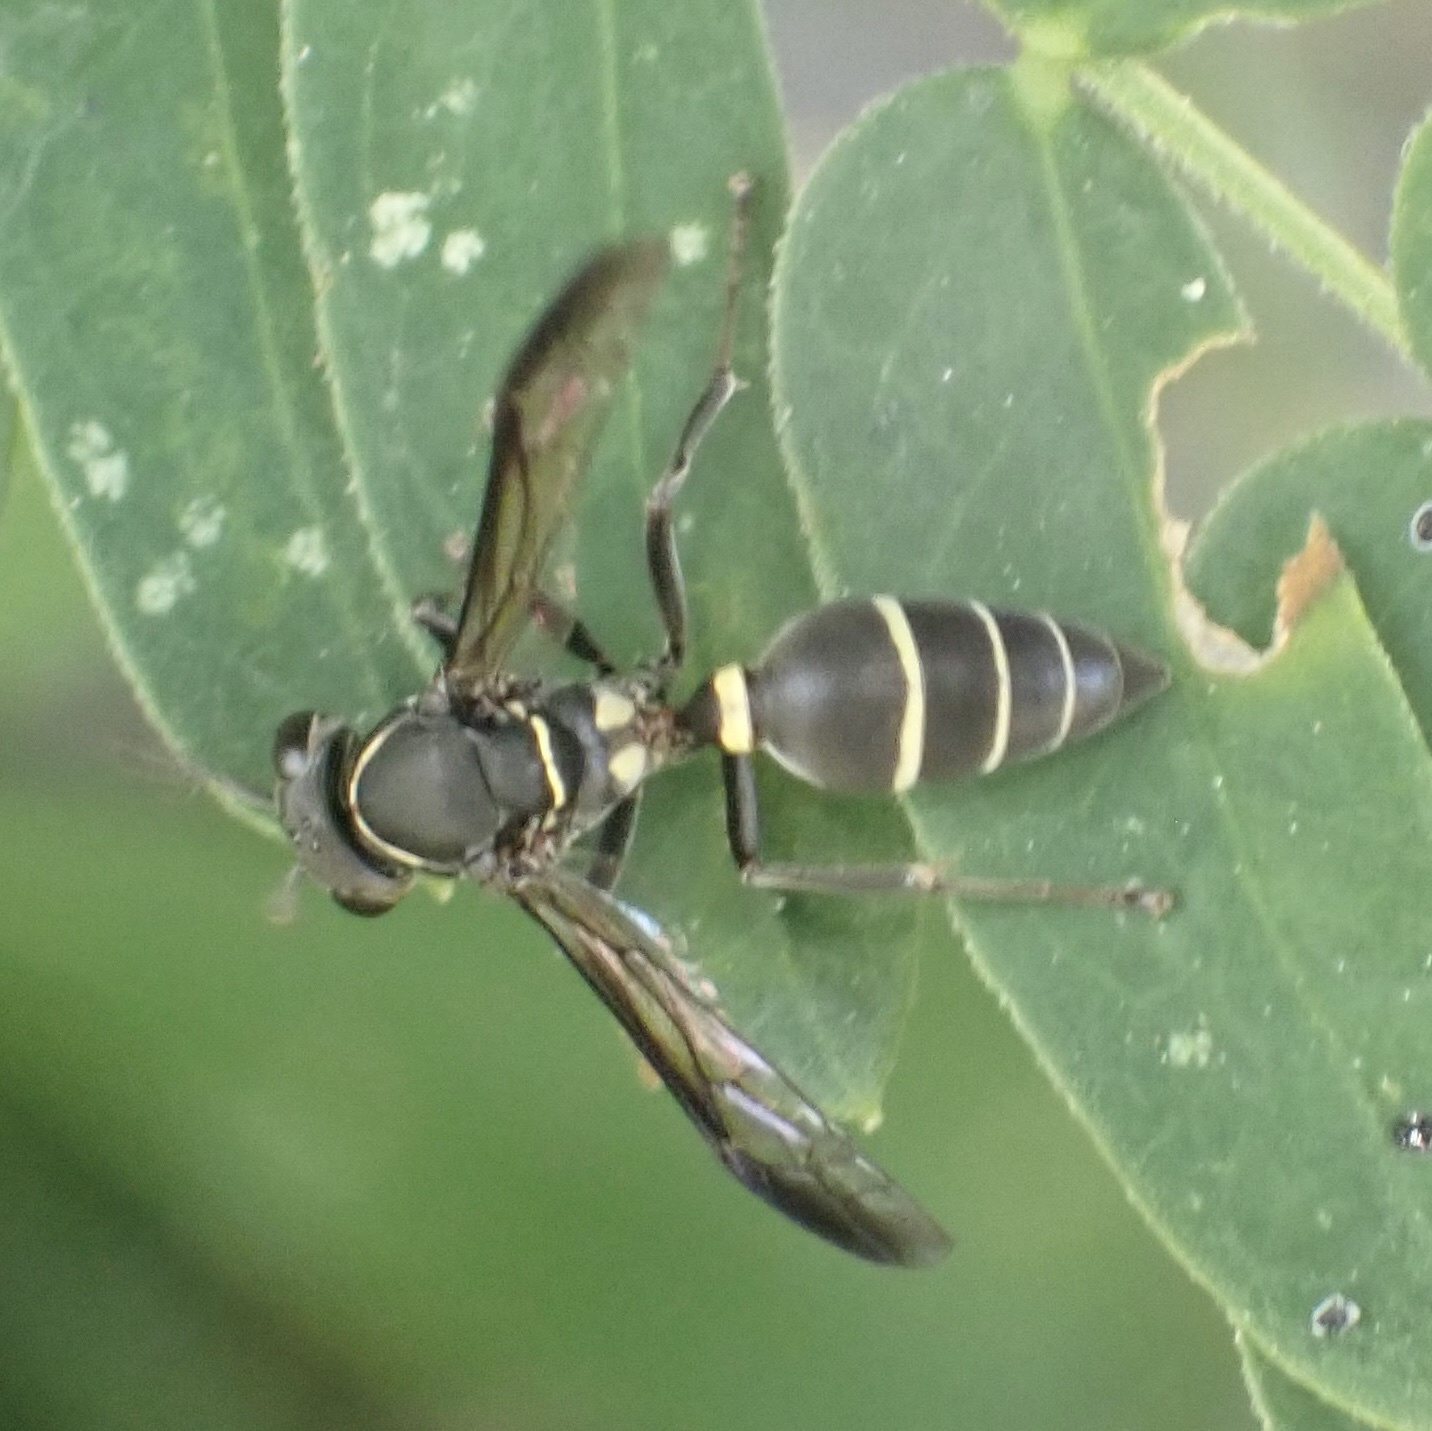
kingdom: Animalia
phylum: Arthropoda
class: Insecta
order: Hymenoptera
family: Eumenidae
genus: Polybia
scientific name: Polybia plebeja
